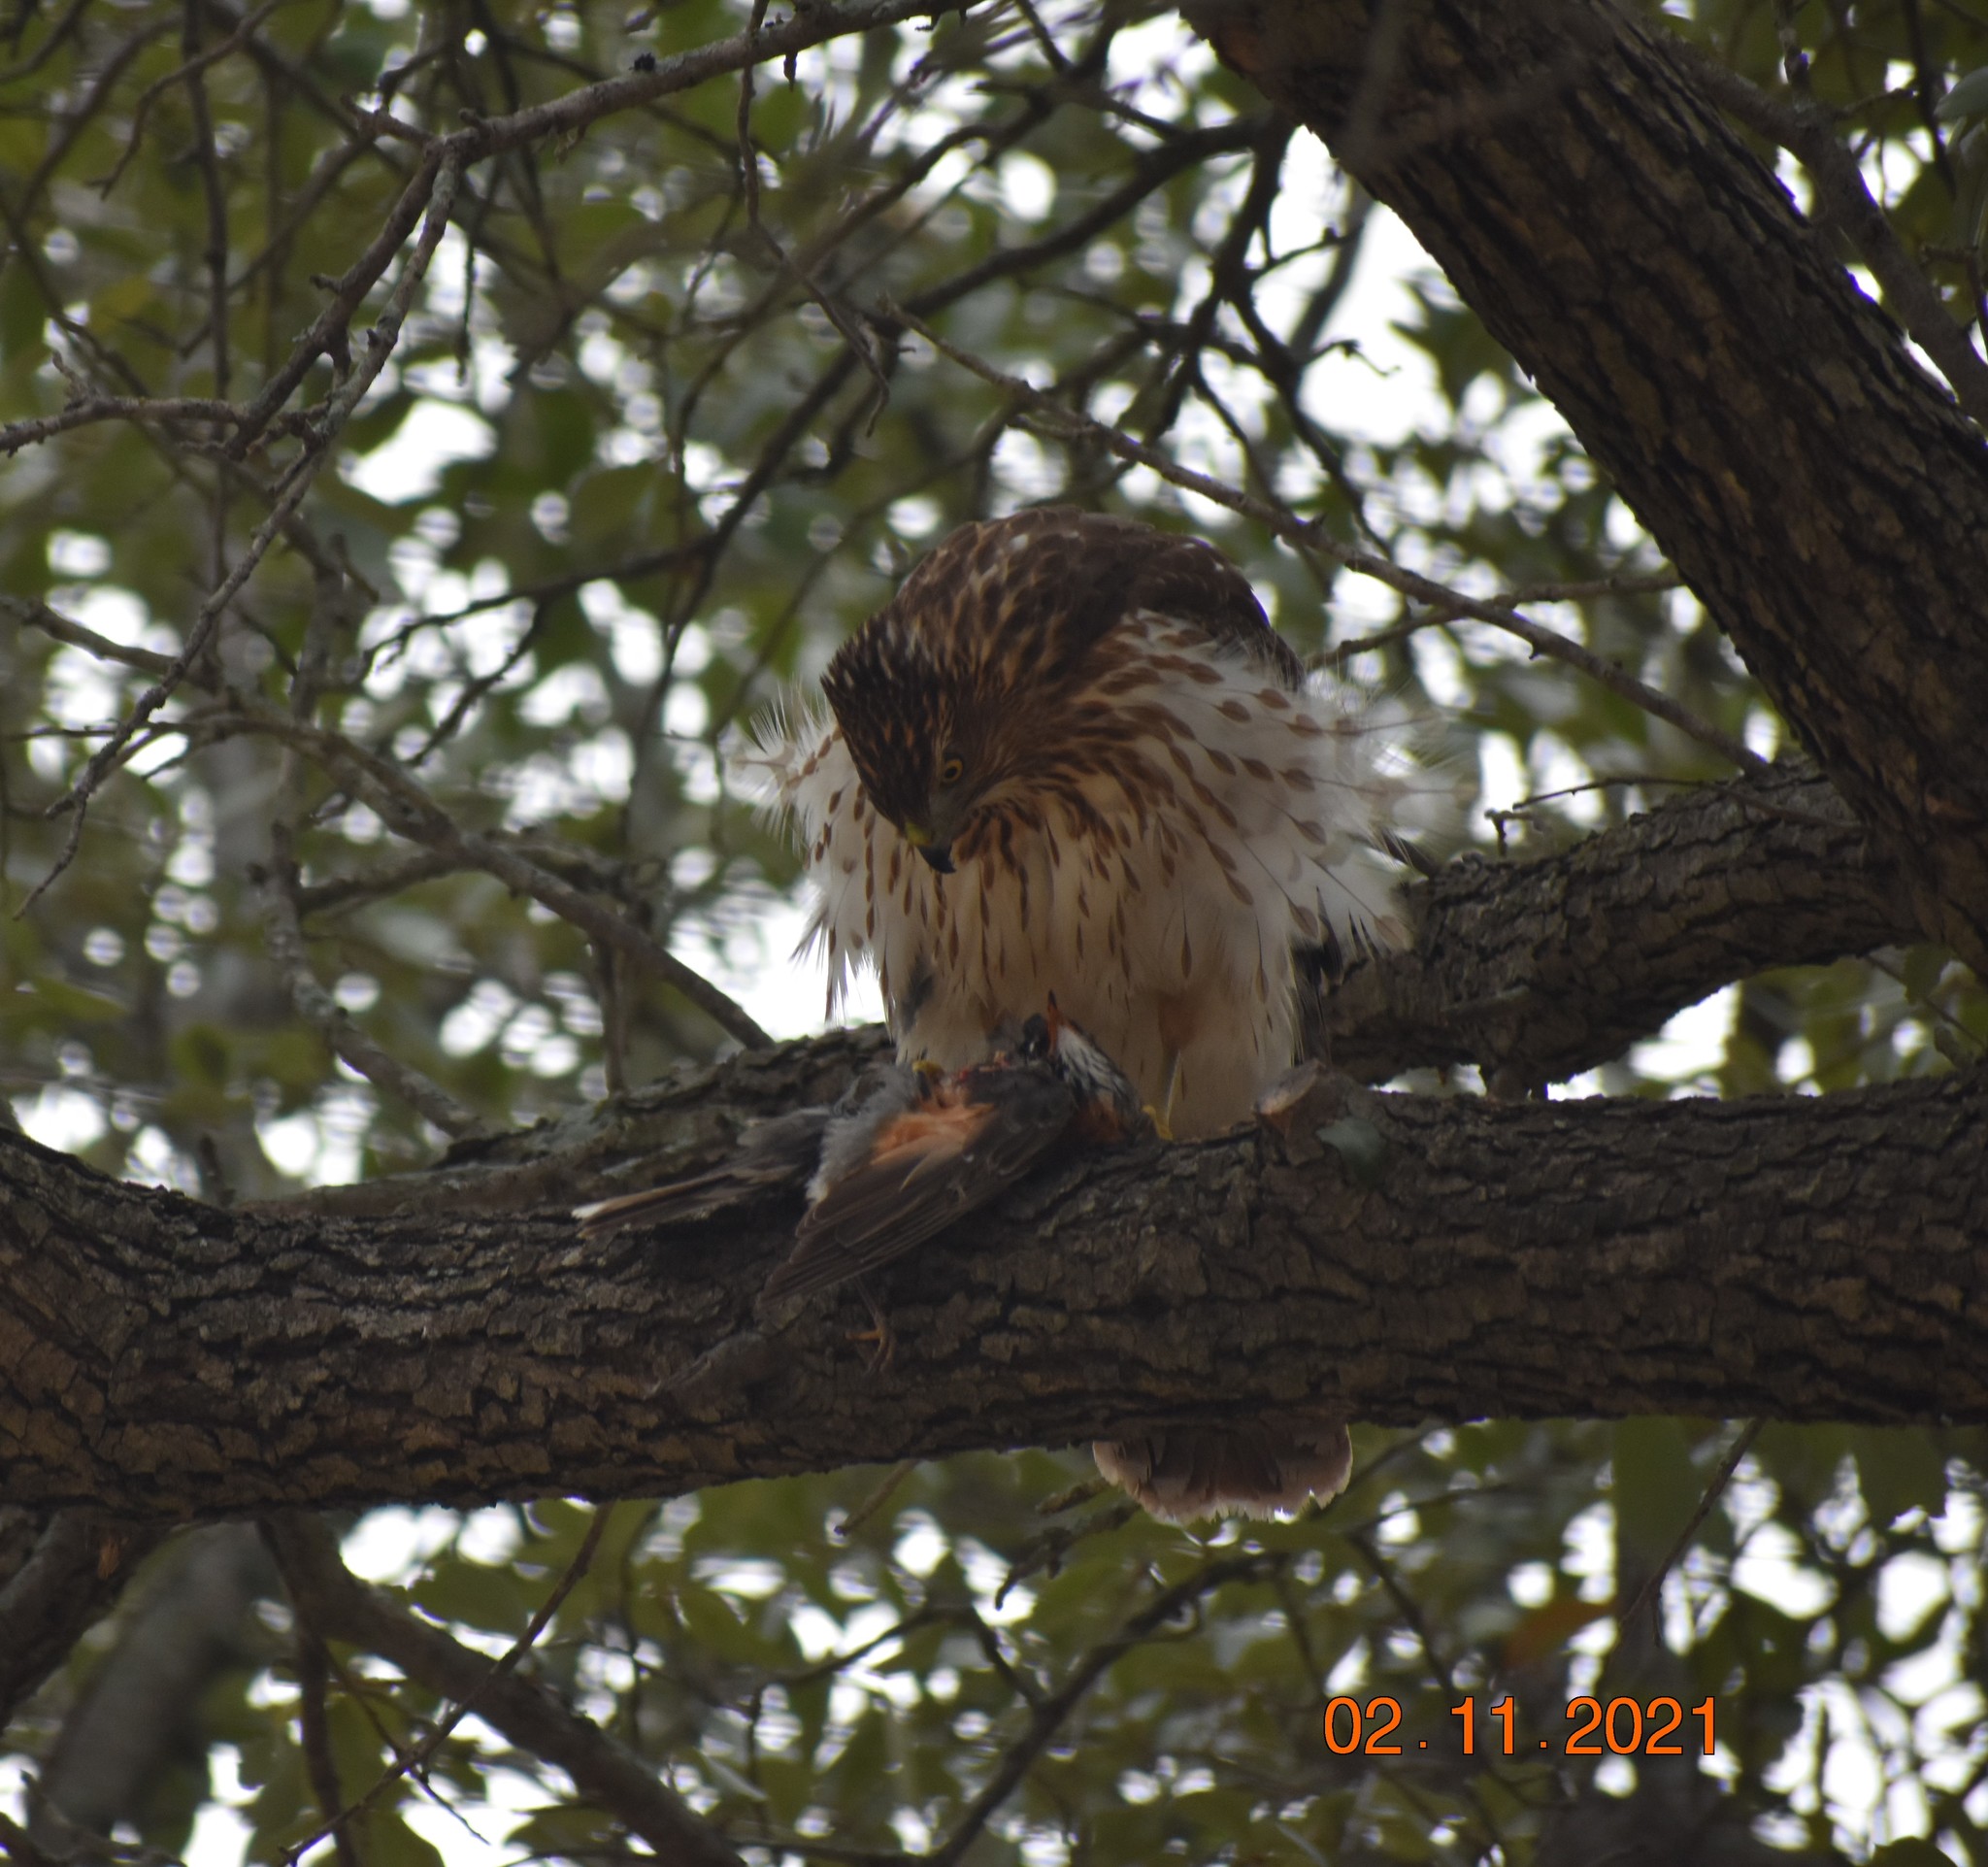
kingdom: Animalia
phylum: Chordata
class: Aves
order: Accipitriformes
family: Accipitridae
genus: Accipiter
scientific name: Accipiter cooperii
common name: Cooper's hawk
